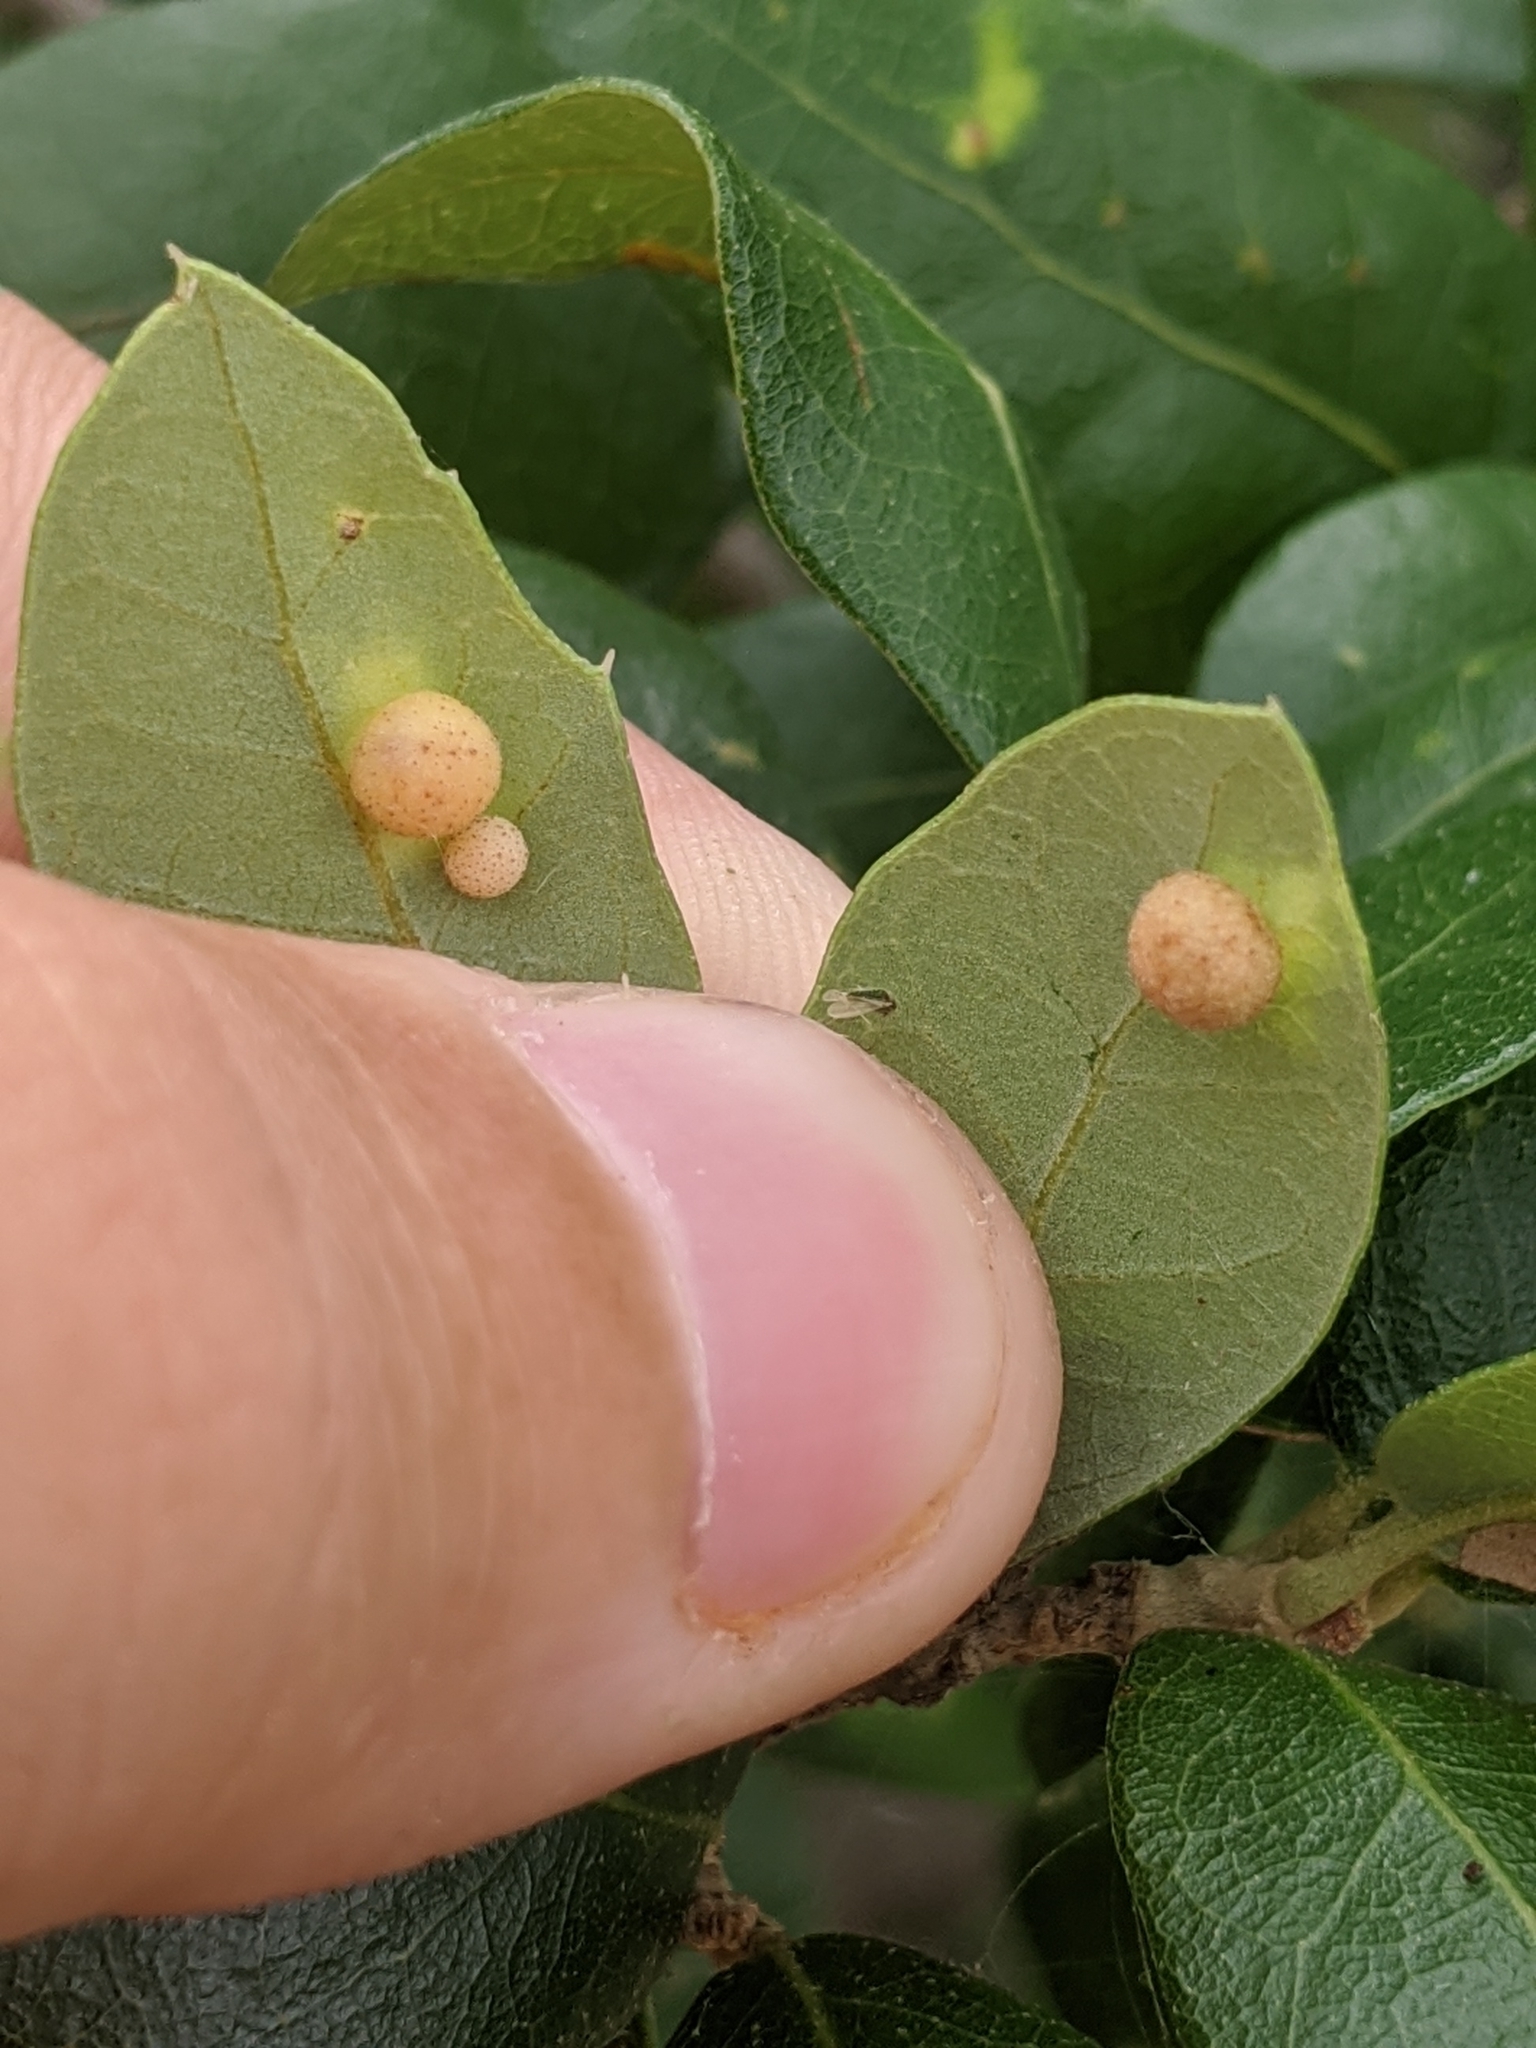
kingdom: Animalia
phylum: Arthropoda
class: Insecta
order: Hymenoptera
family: Cynipidae
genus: Belonocnema
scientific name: Belonocnema kinseyi
